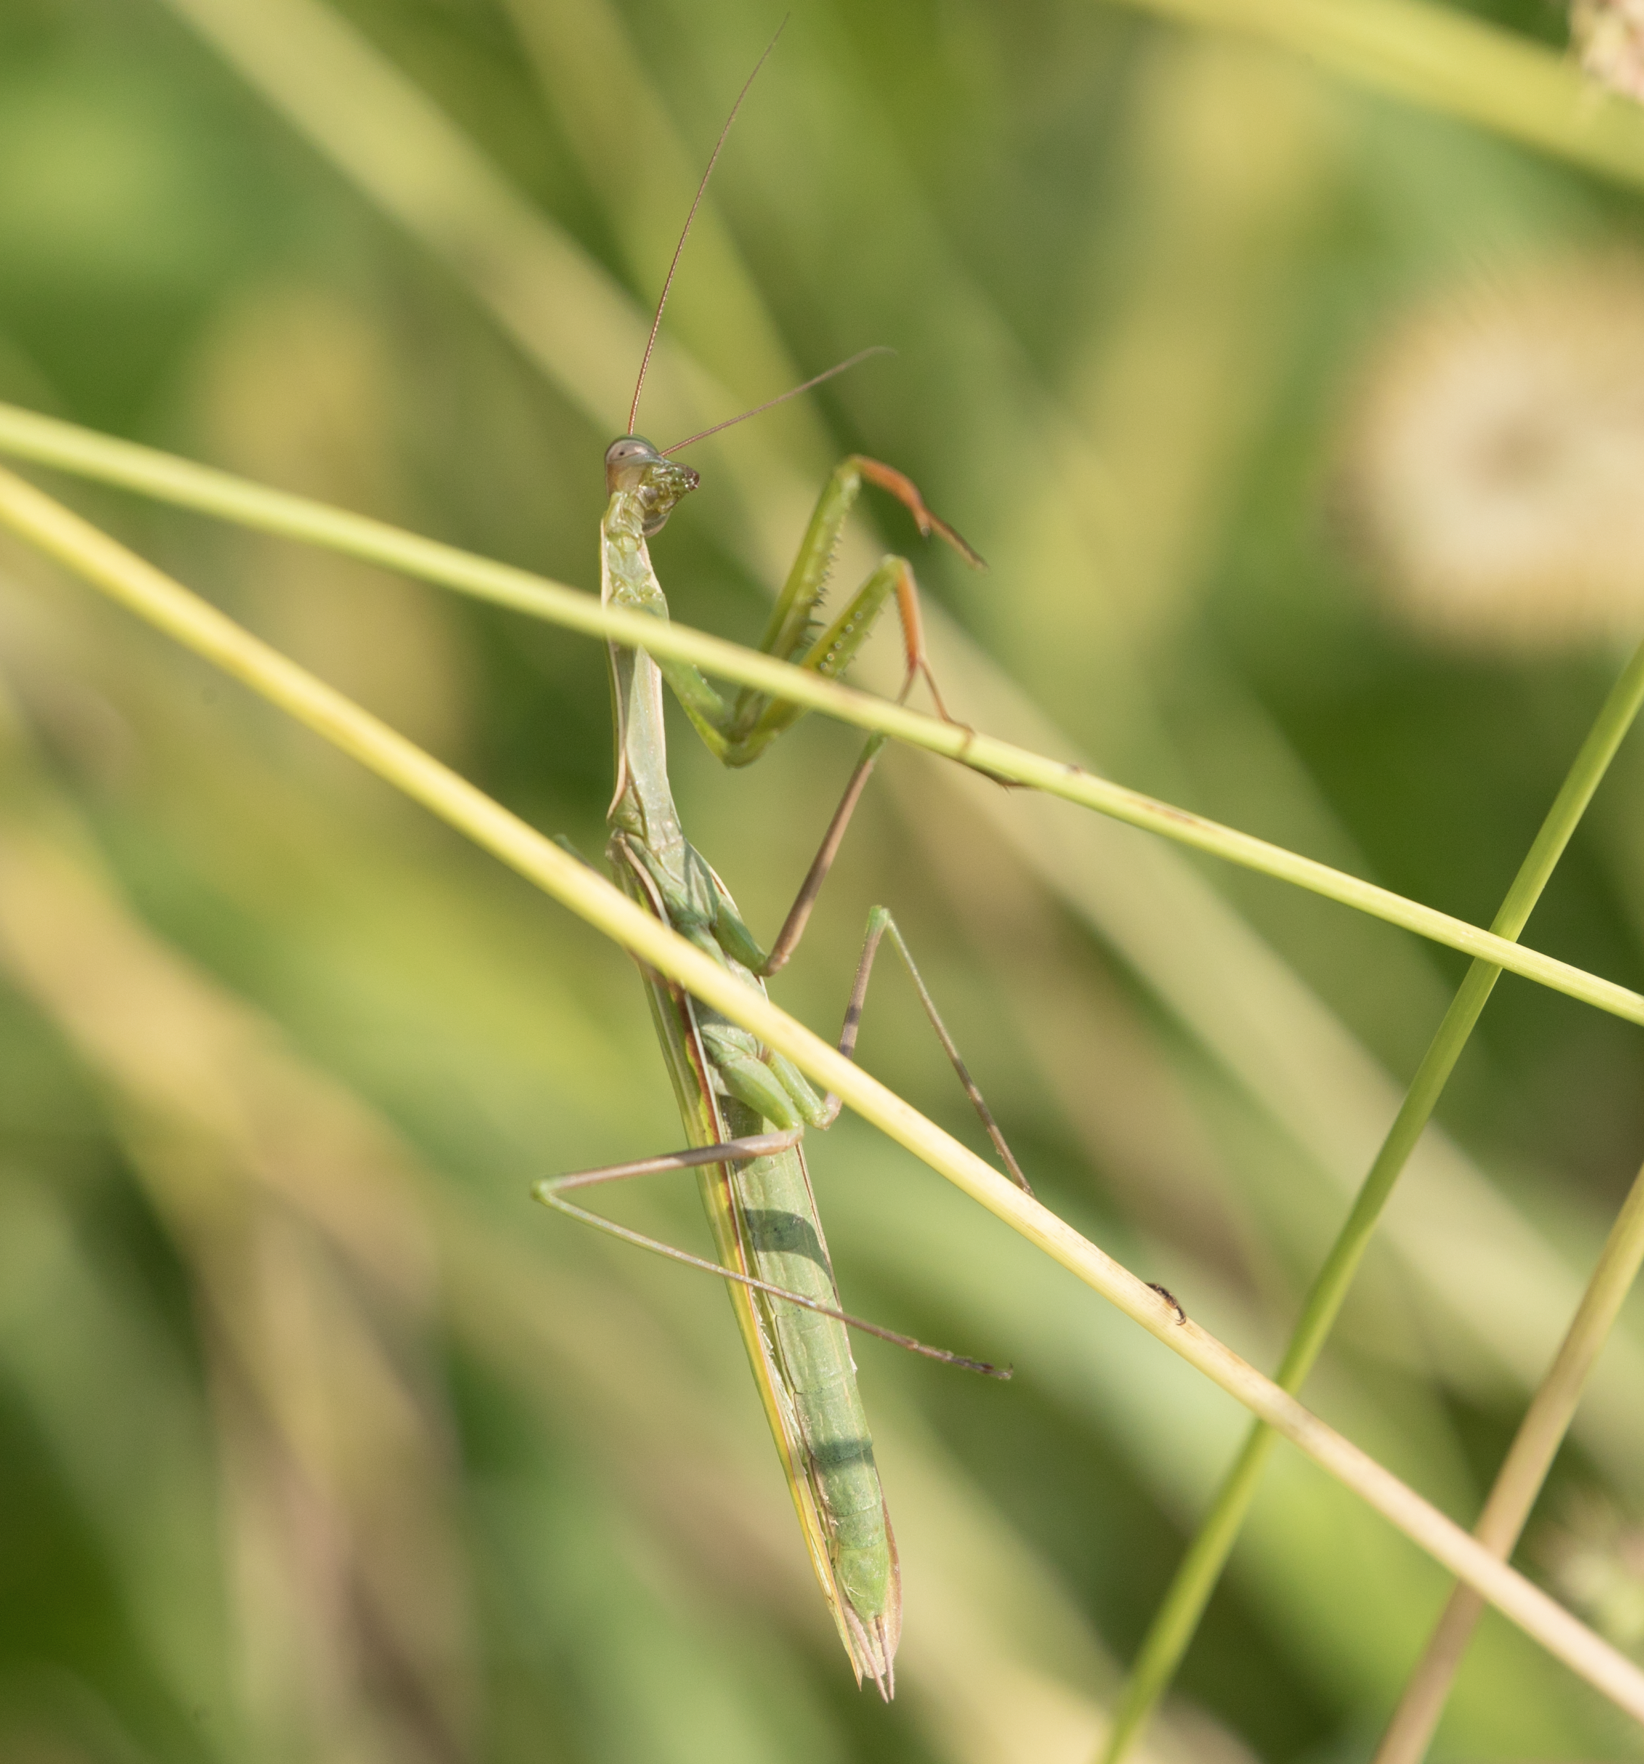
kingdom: Animalia
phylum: Arthropoda
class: Insecta
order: Mantodea
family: Mantidae
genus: Mantis
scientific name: Mantis religiosa
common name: Praying mantis
